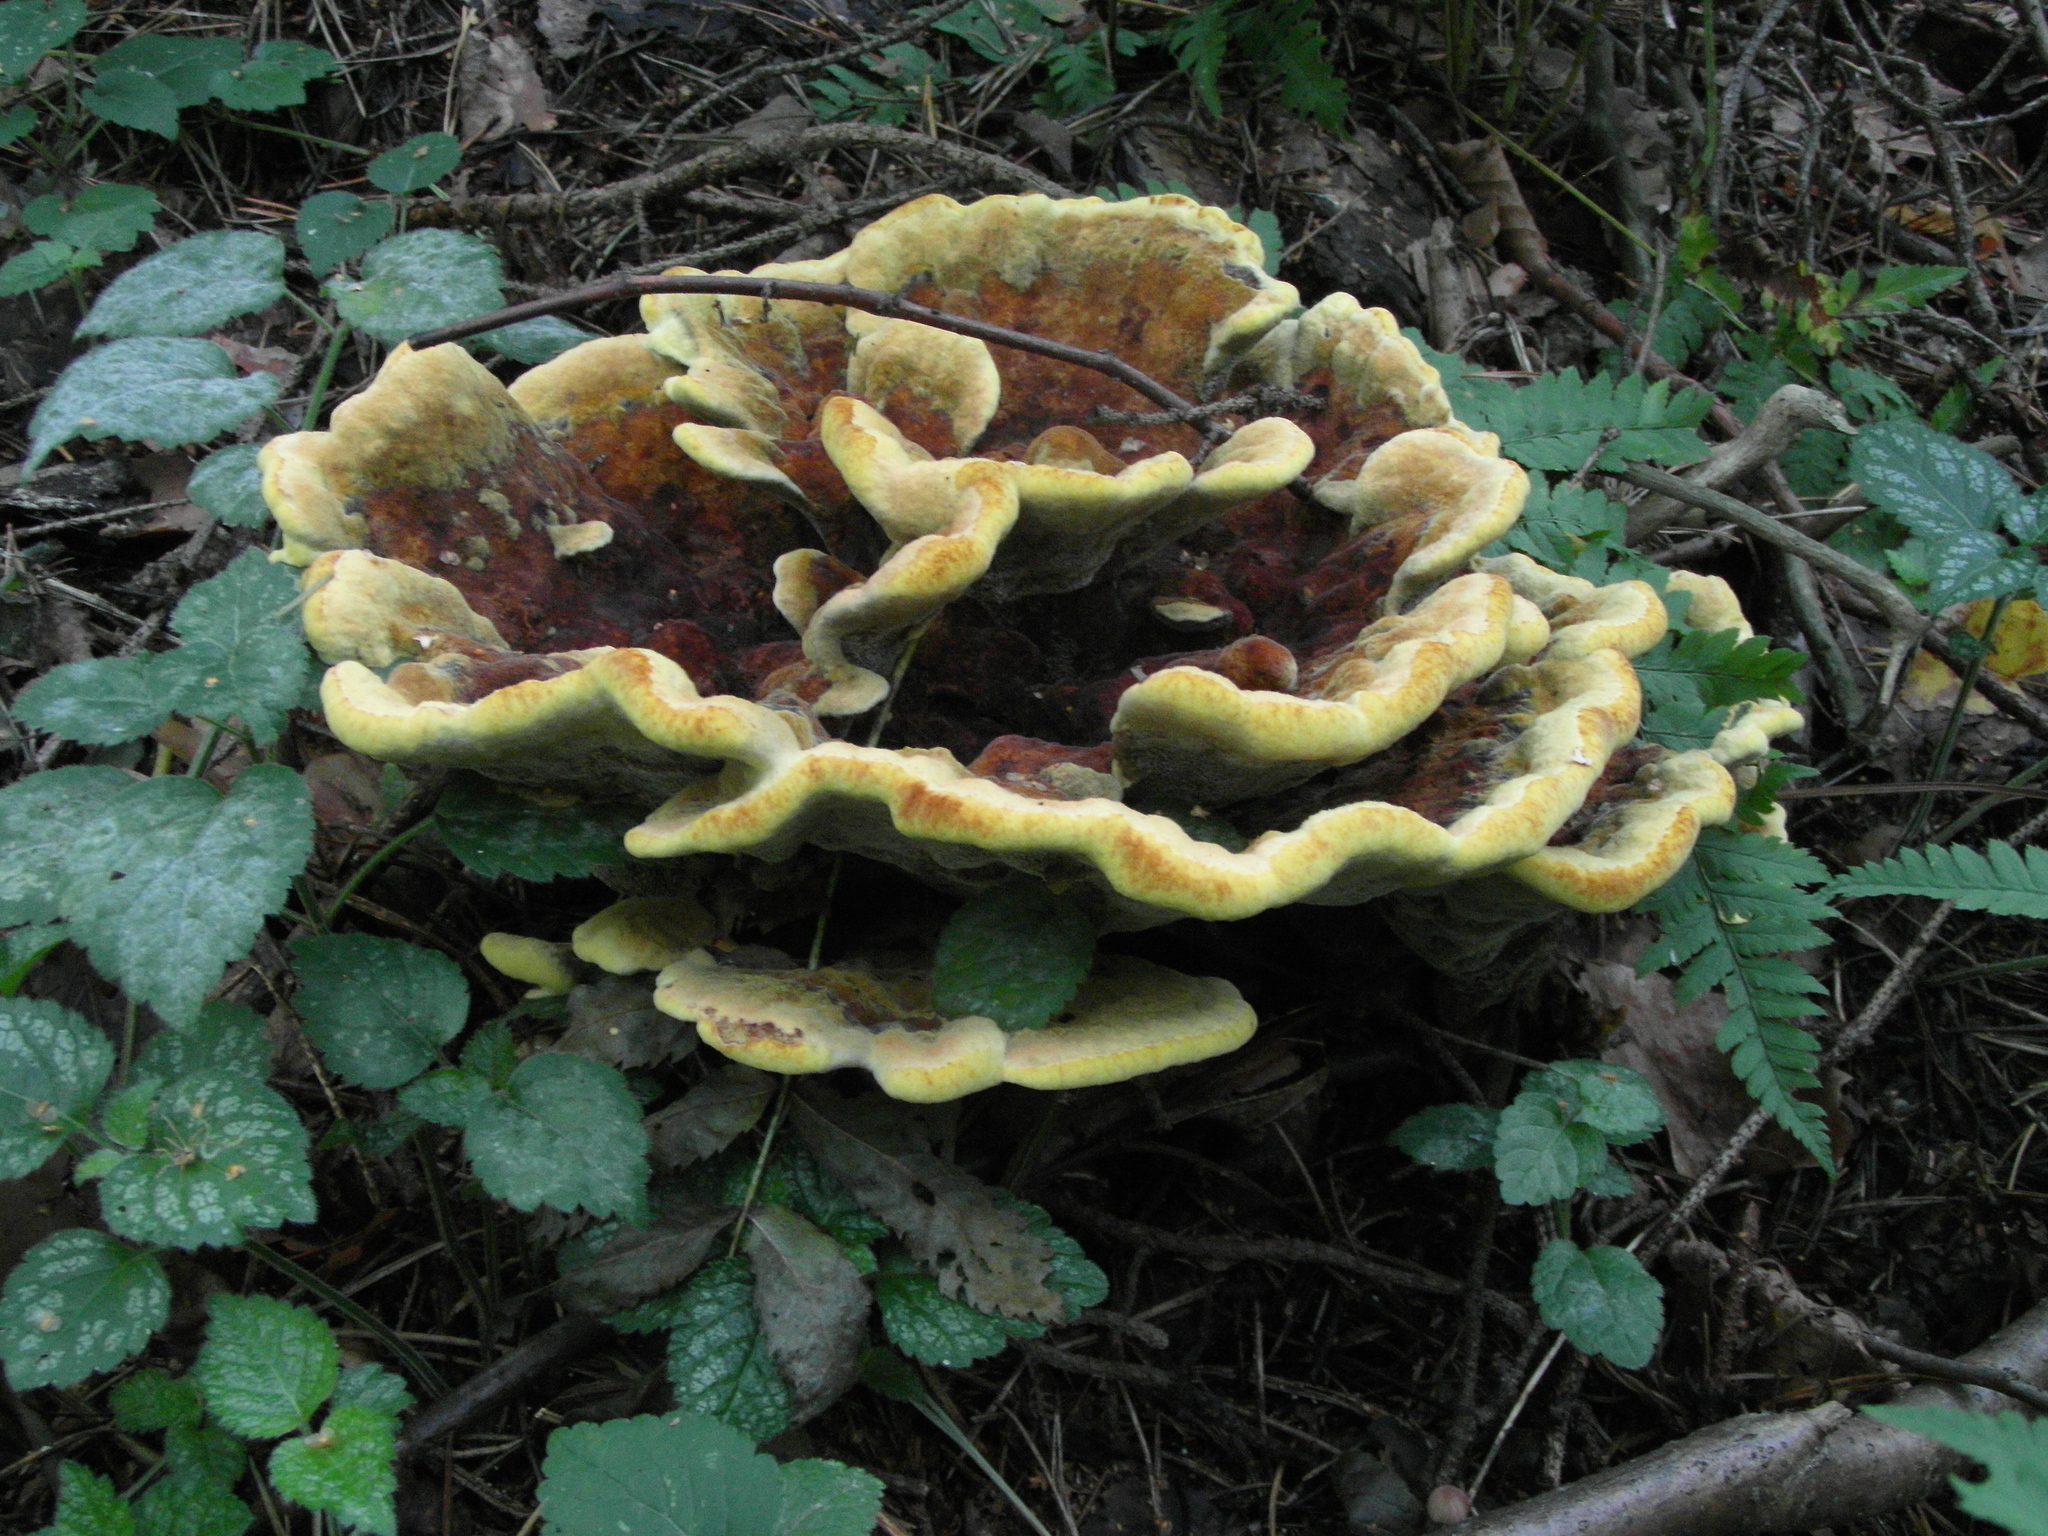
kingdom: Fungi
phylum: Basidiomycota
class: Agaricomycetes
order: Polyporales
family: Laetiporaceae
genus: Phaeolus
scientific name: Phaeolus schweinitzii
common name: Dyer's mazegill
